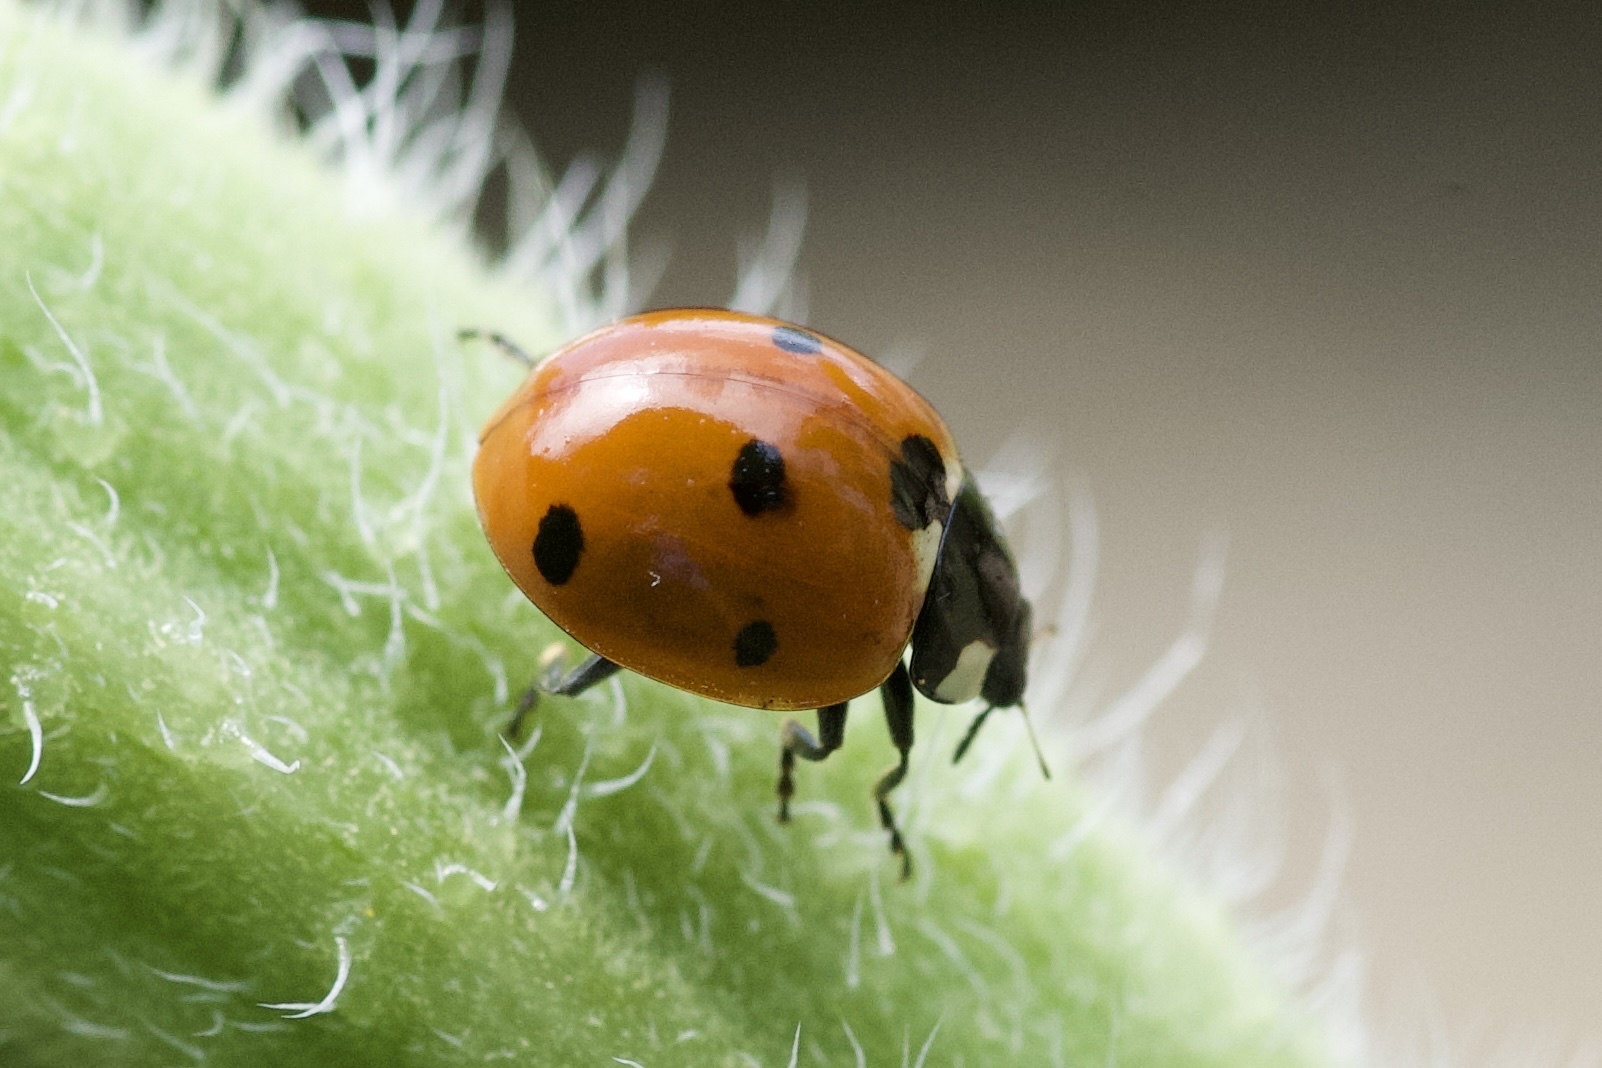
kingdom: Animalia
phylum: Arthropoda
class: Insecta
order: Coleoptera
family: Coccinellidae
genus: Coccinella
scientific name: Coccinella septempunctata
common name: Sevenspotted lady beetle
